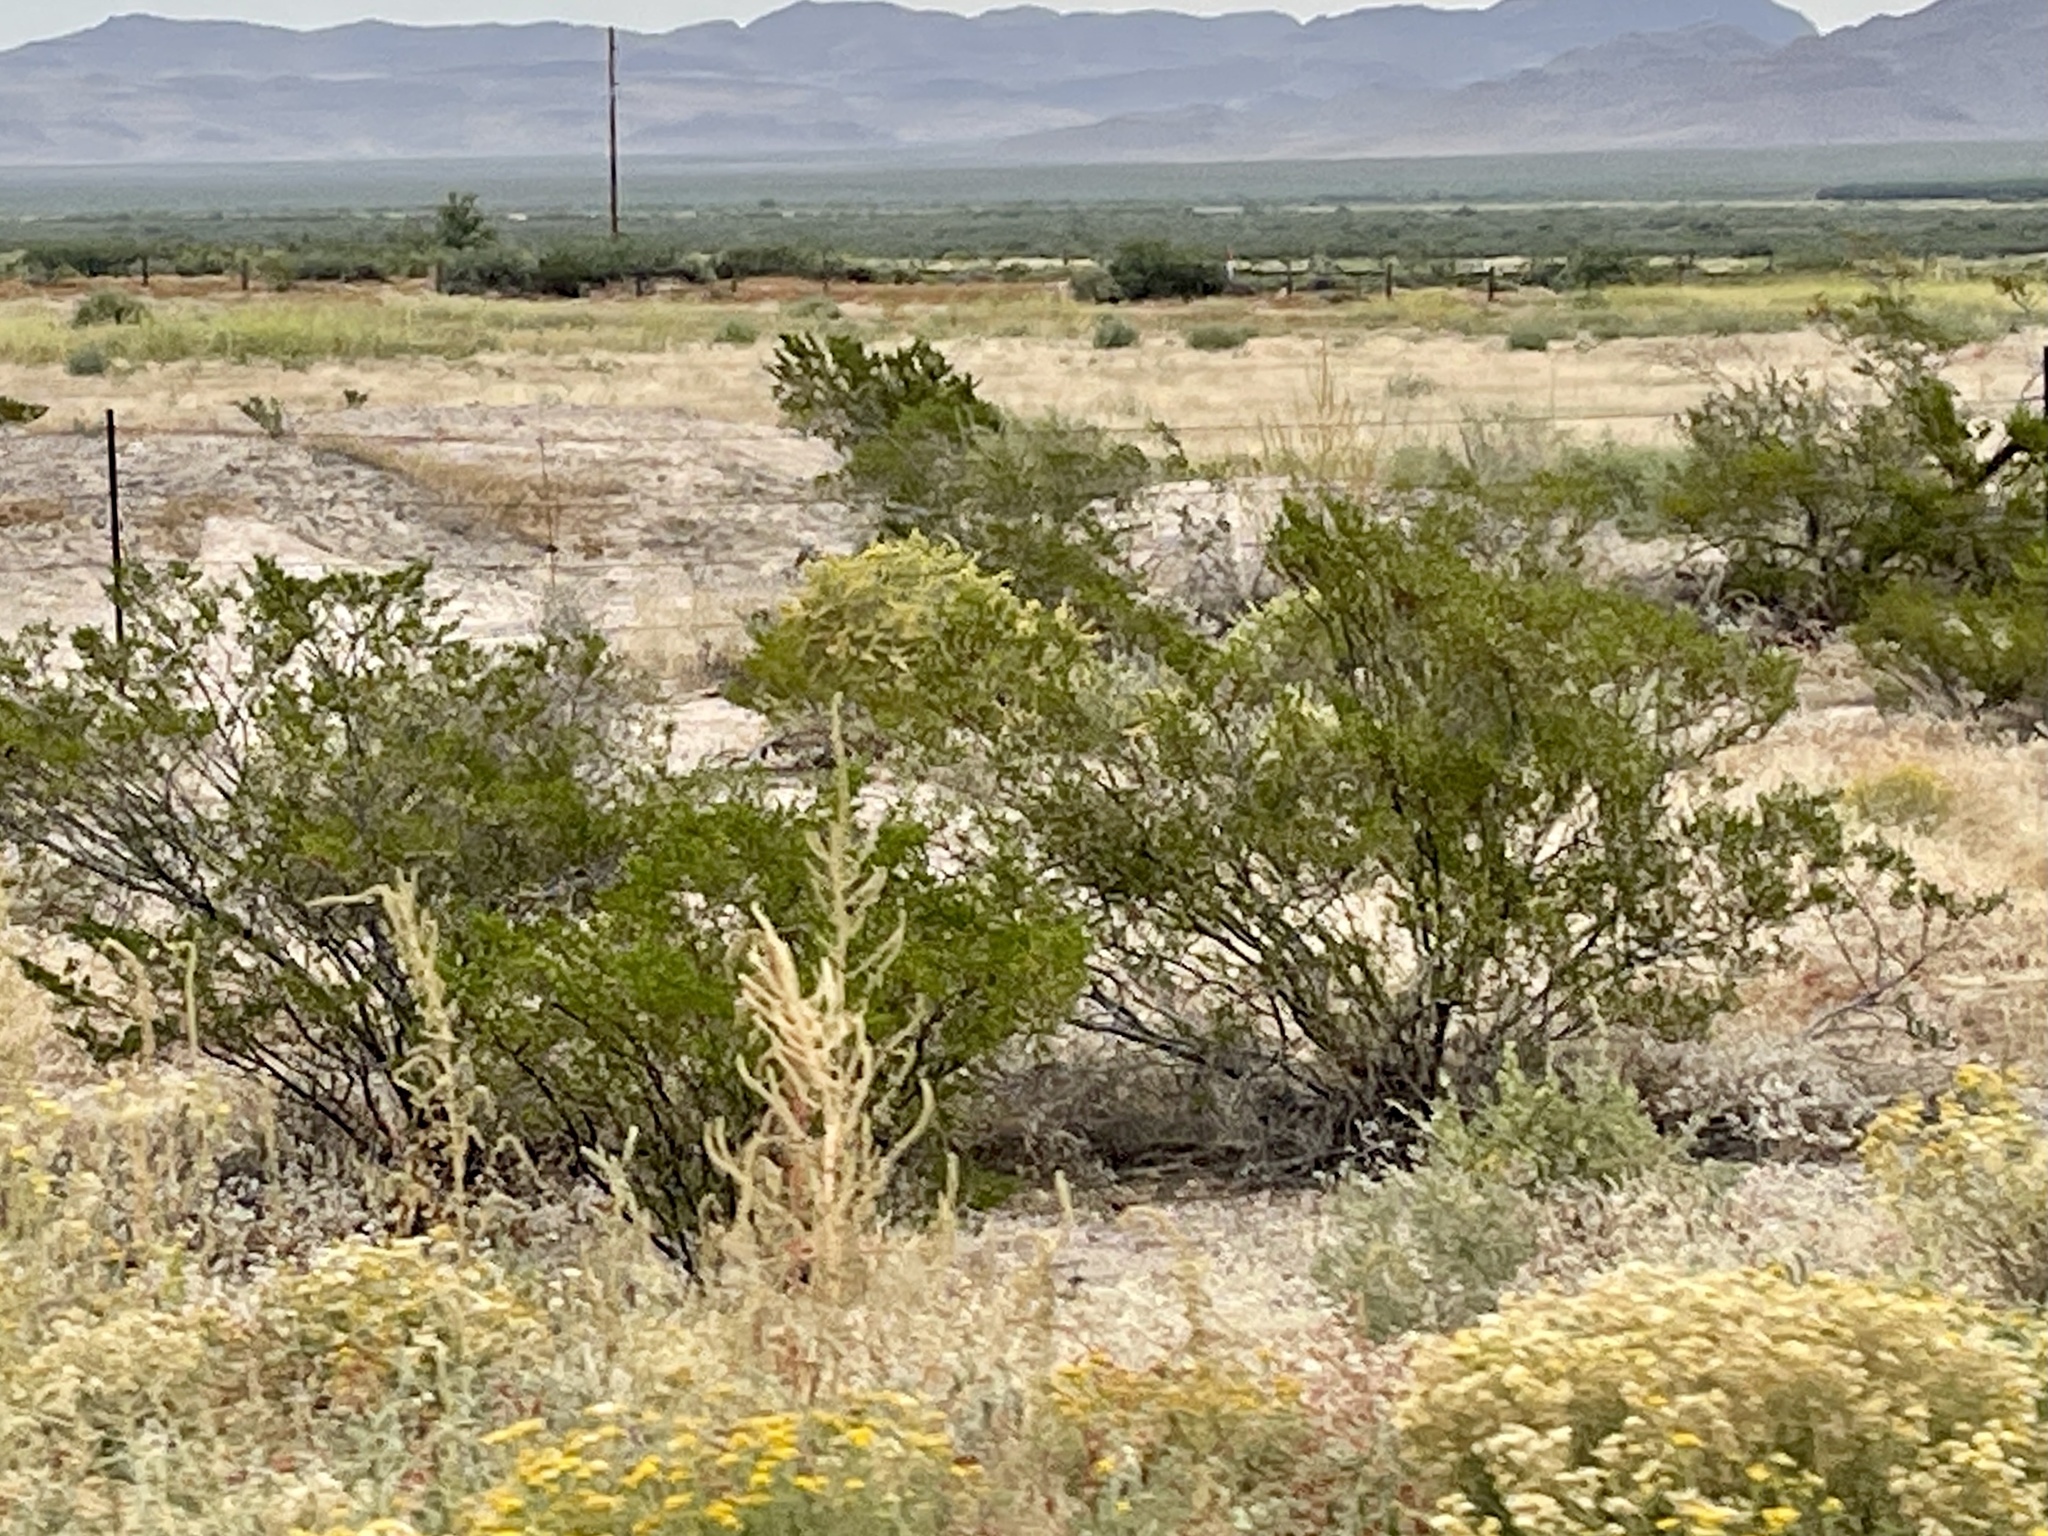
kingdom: Plantae
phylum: Tracheophyta
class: Magnoliopsida
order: Zygophyllales
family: Zygophyllaceae
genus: Larrea
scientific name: Larrea tridentata
